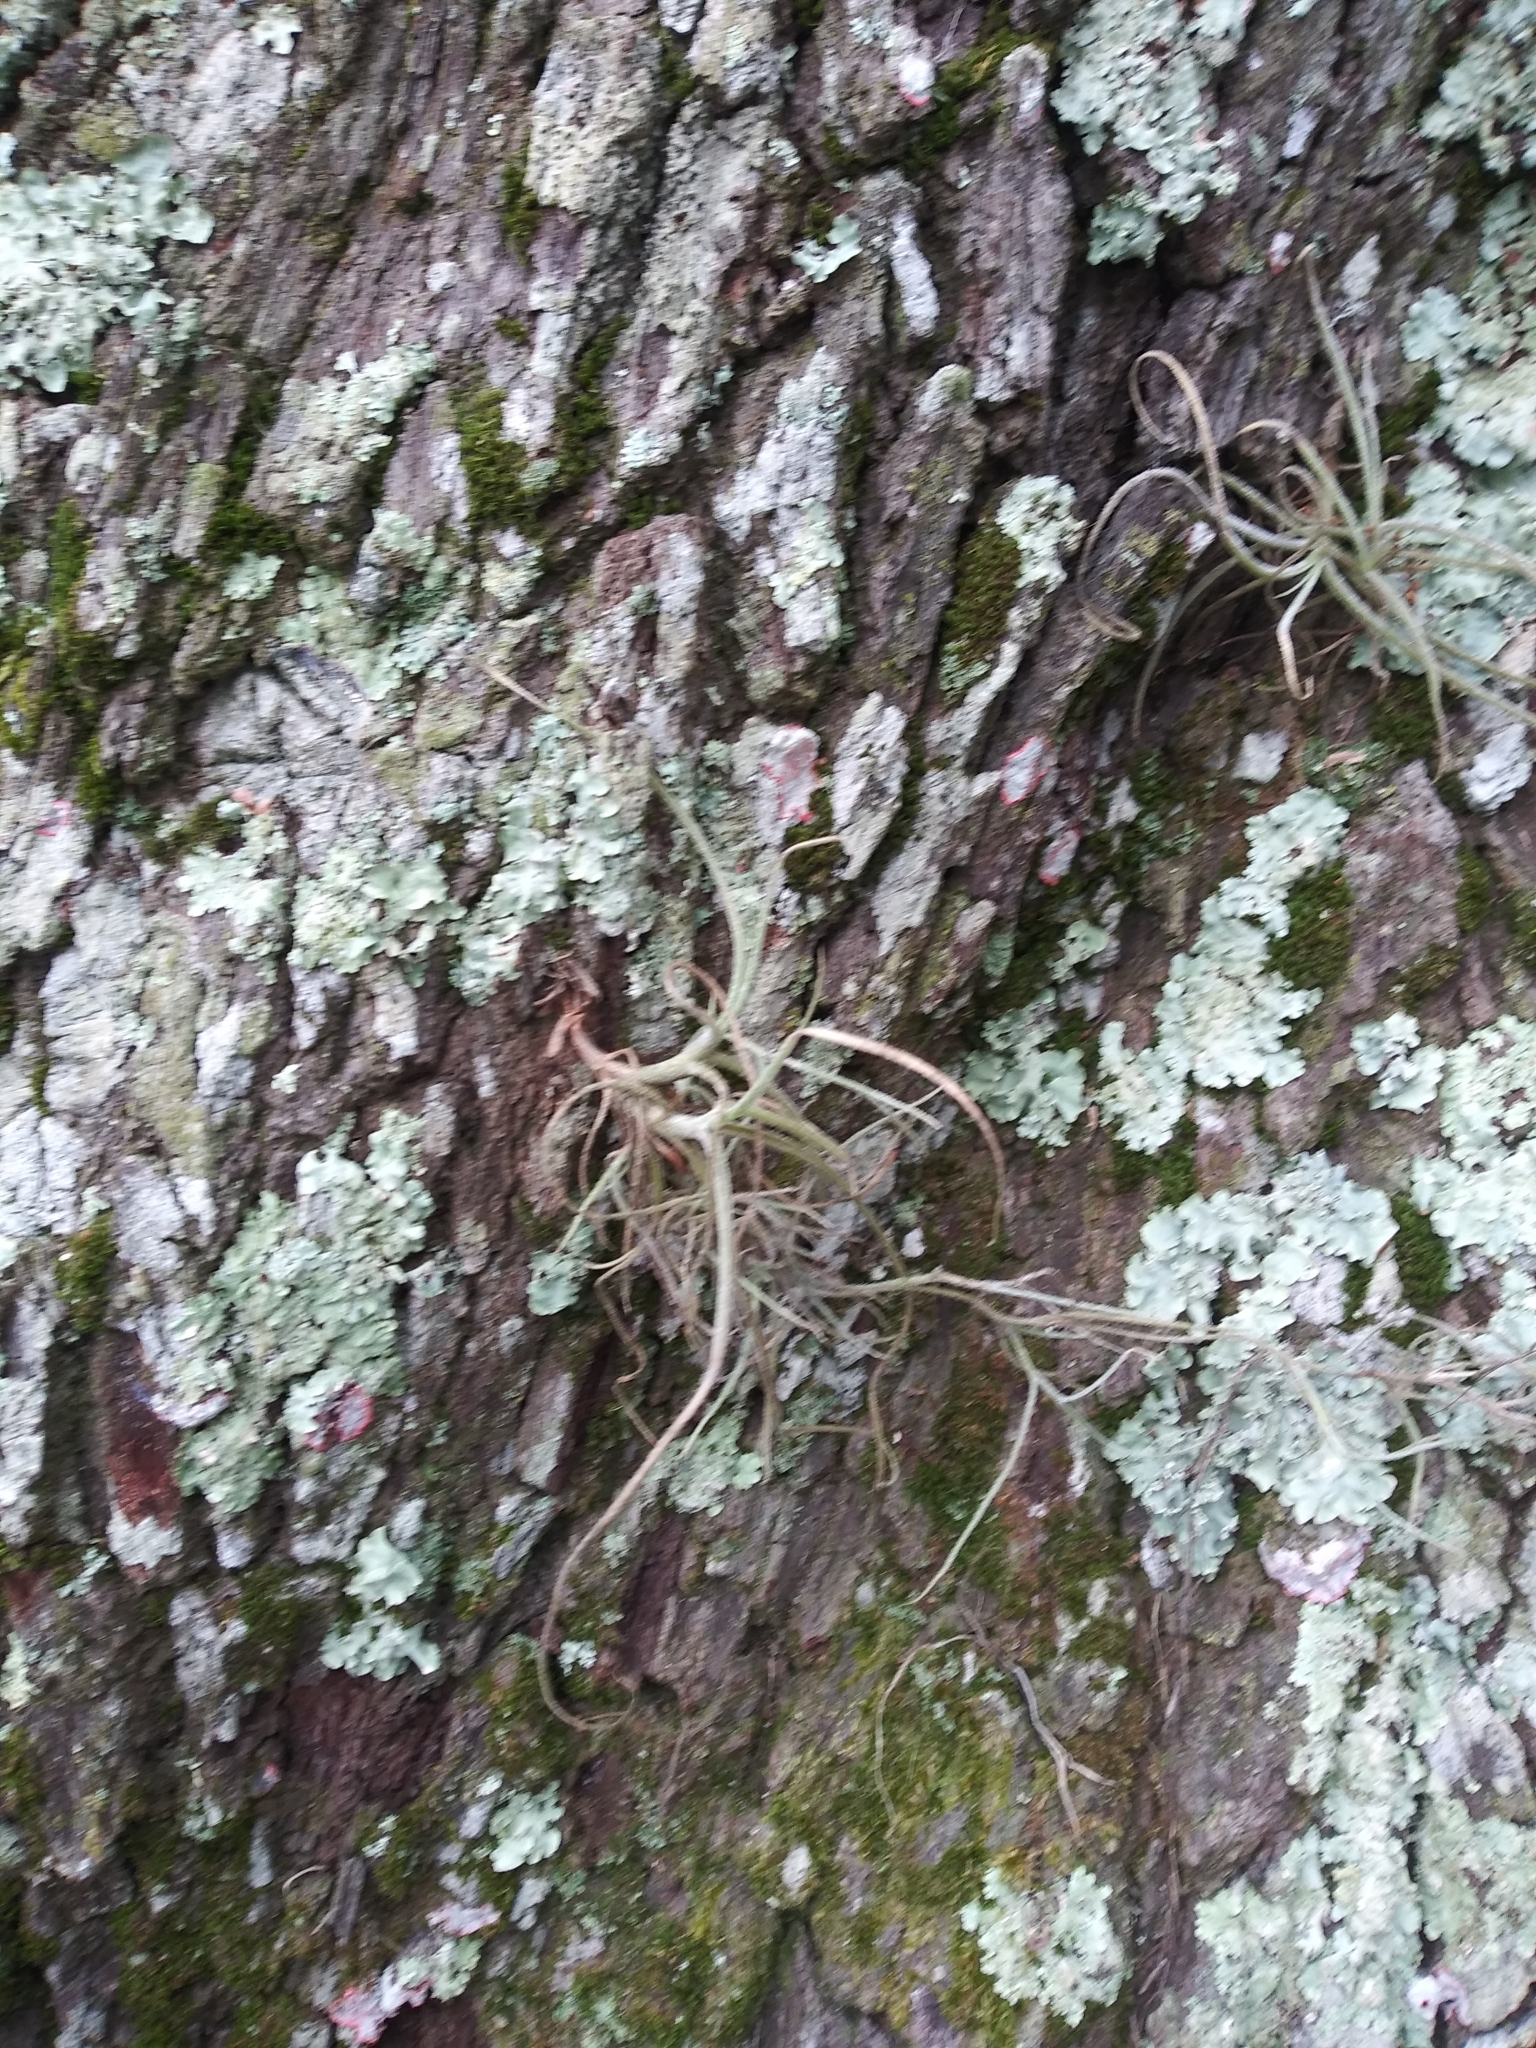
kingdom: Plantae
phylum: Tracheophyta
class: Liliopsida
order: Poales
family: Bromeliaceae
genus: Tillandsia
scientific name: Tillandsia recurvata
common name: Small ballmoss
